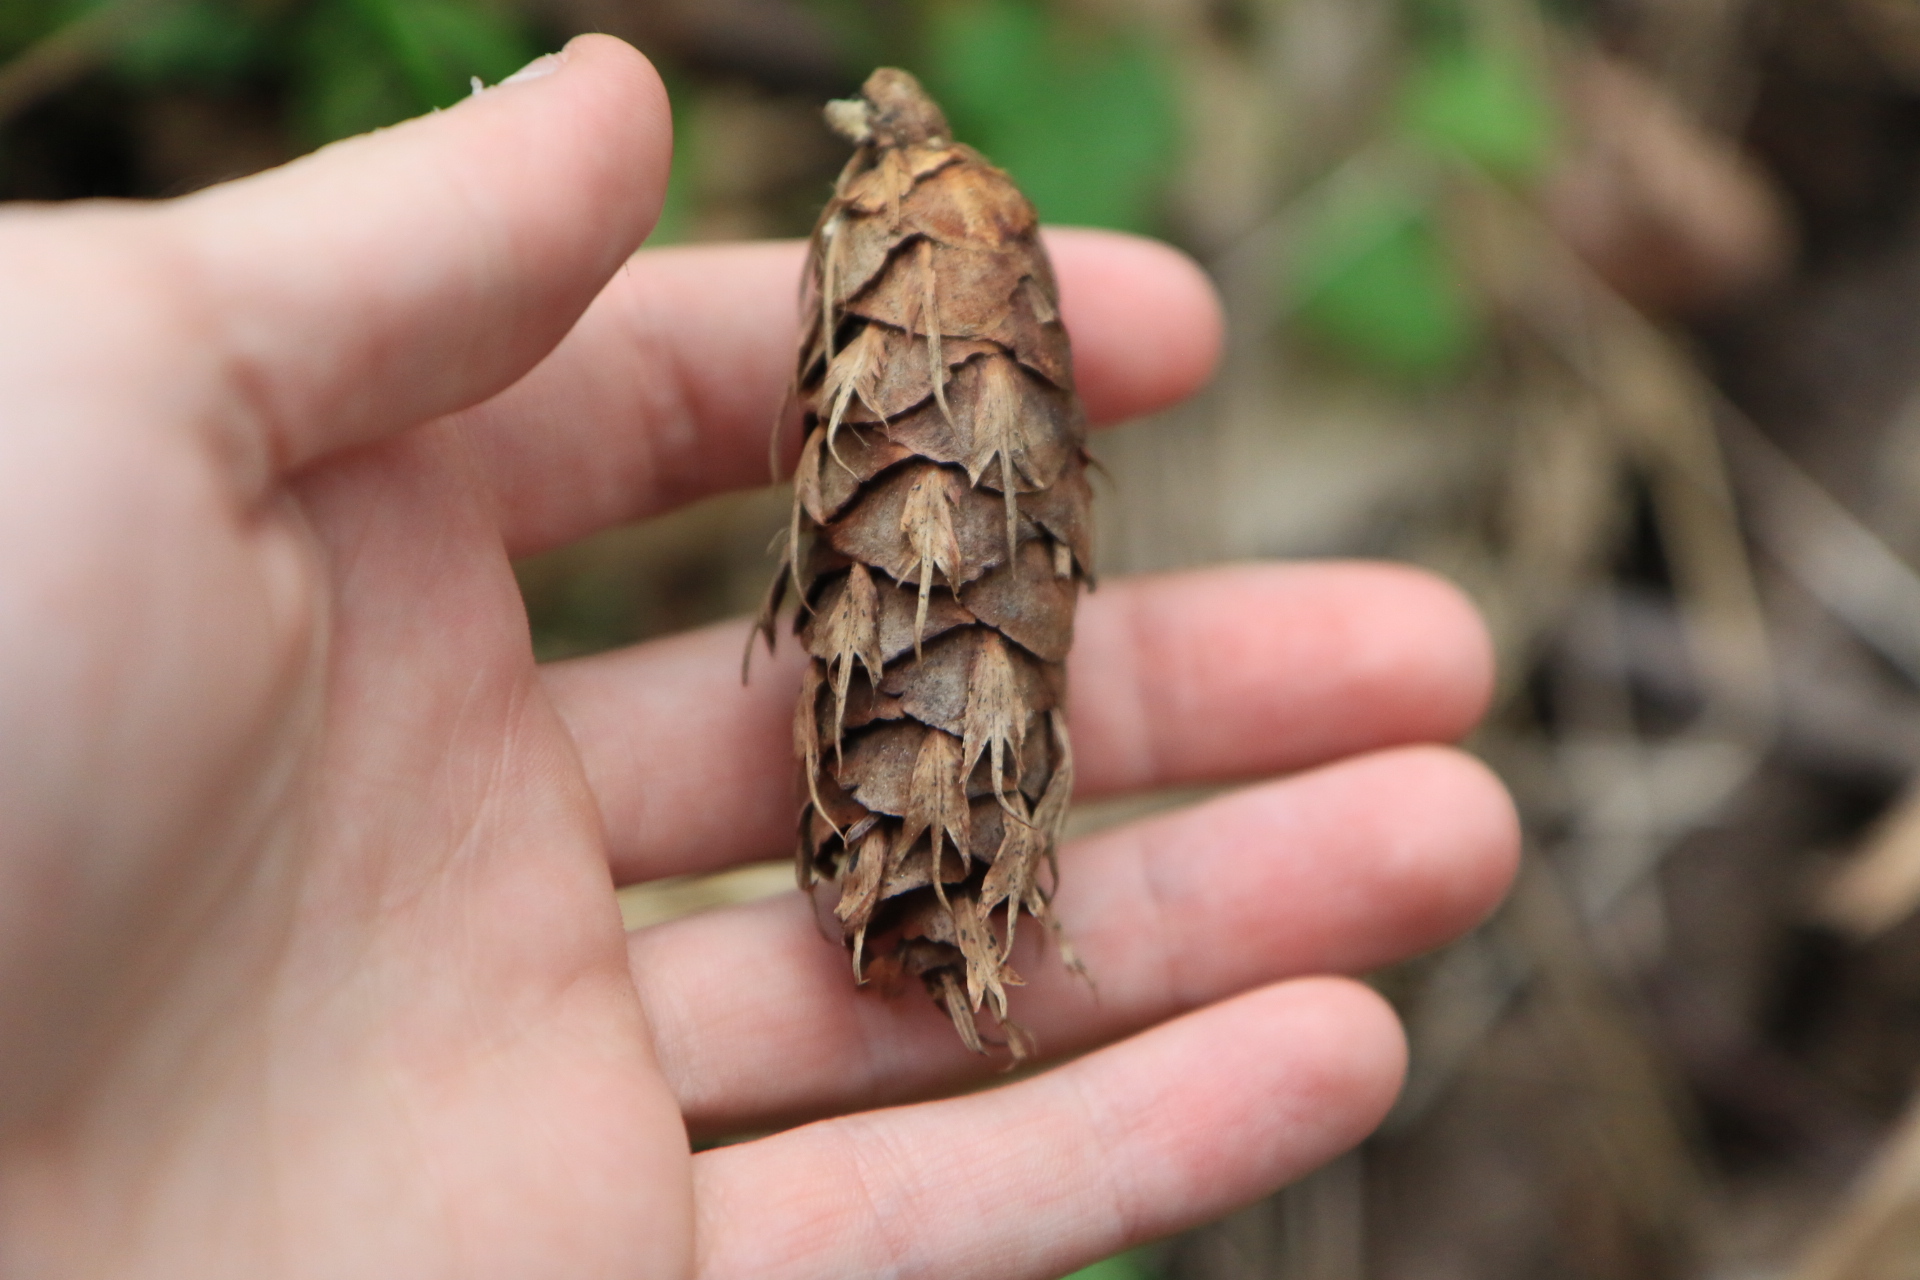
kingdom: Plantae
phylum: Tracheophyta
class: Pinopsida
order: Pinales
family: Pinaceae
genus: Pseudotsuga
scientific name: Pseudotsuga menziesii
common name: Douglas fir
